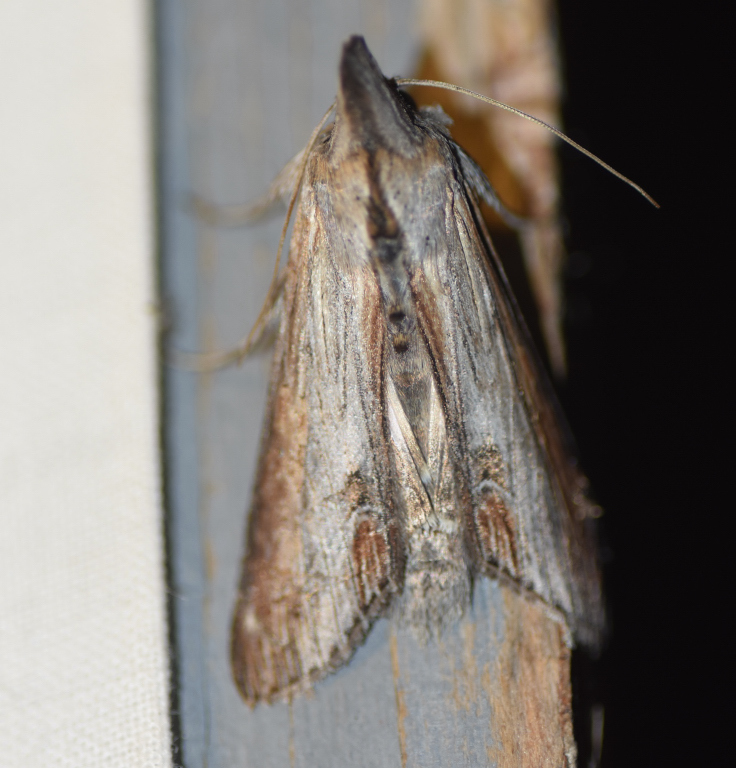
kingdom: Animalia
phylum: Arthropoda
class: Insecta
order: Lepidoptera
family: Noctuidae
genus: Cucullia
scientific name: Cucullia asteroides
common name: Asteroid moth
